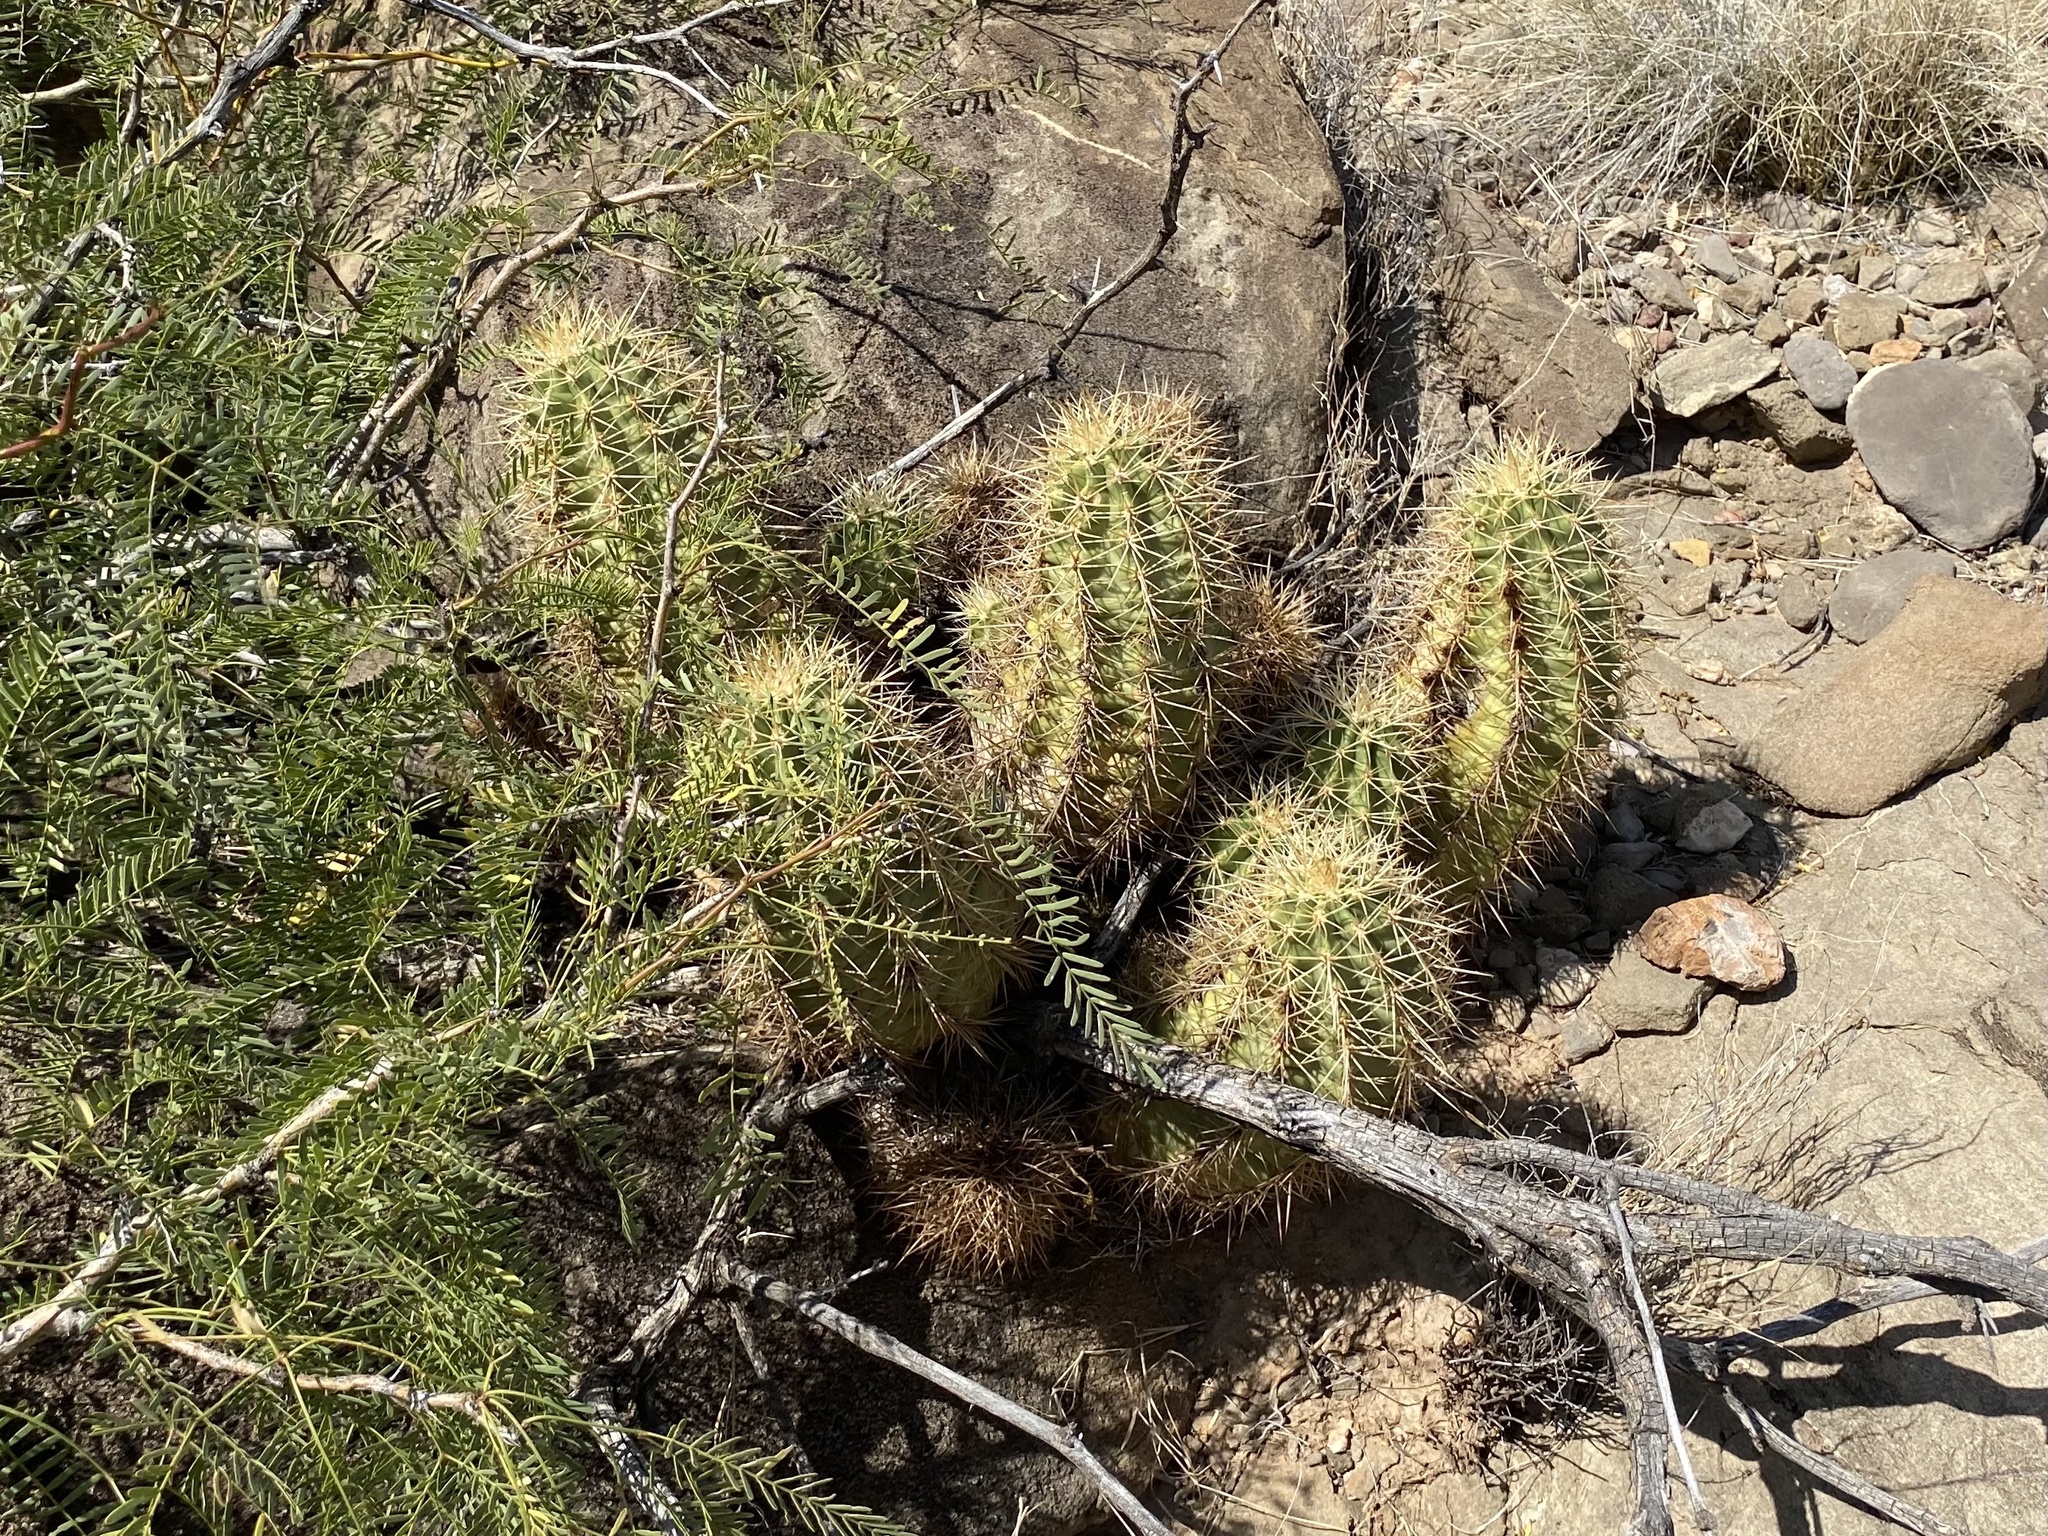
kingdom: Plantae
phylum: Tracheophyta
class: Magnoliopsida
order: Caryophyllales
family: Cactaceae
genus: Echinocereus
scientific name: Echinocereus coccineus
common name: Scarlet hedgehog cactus
